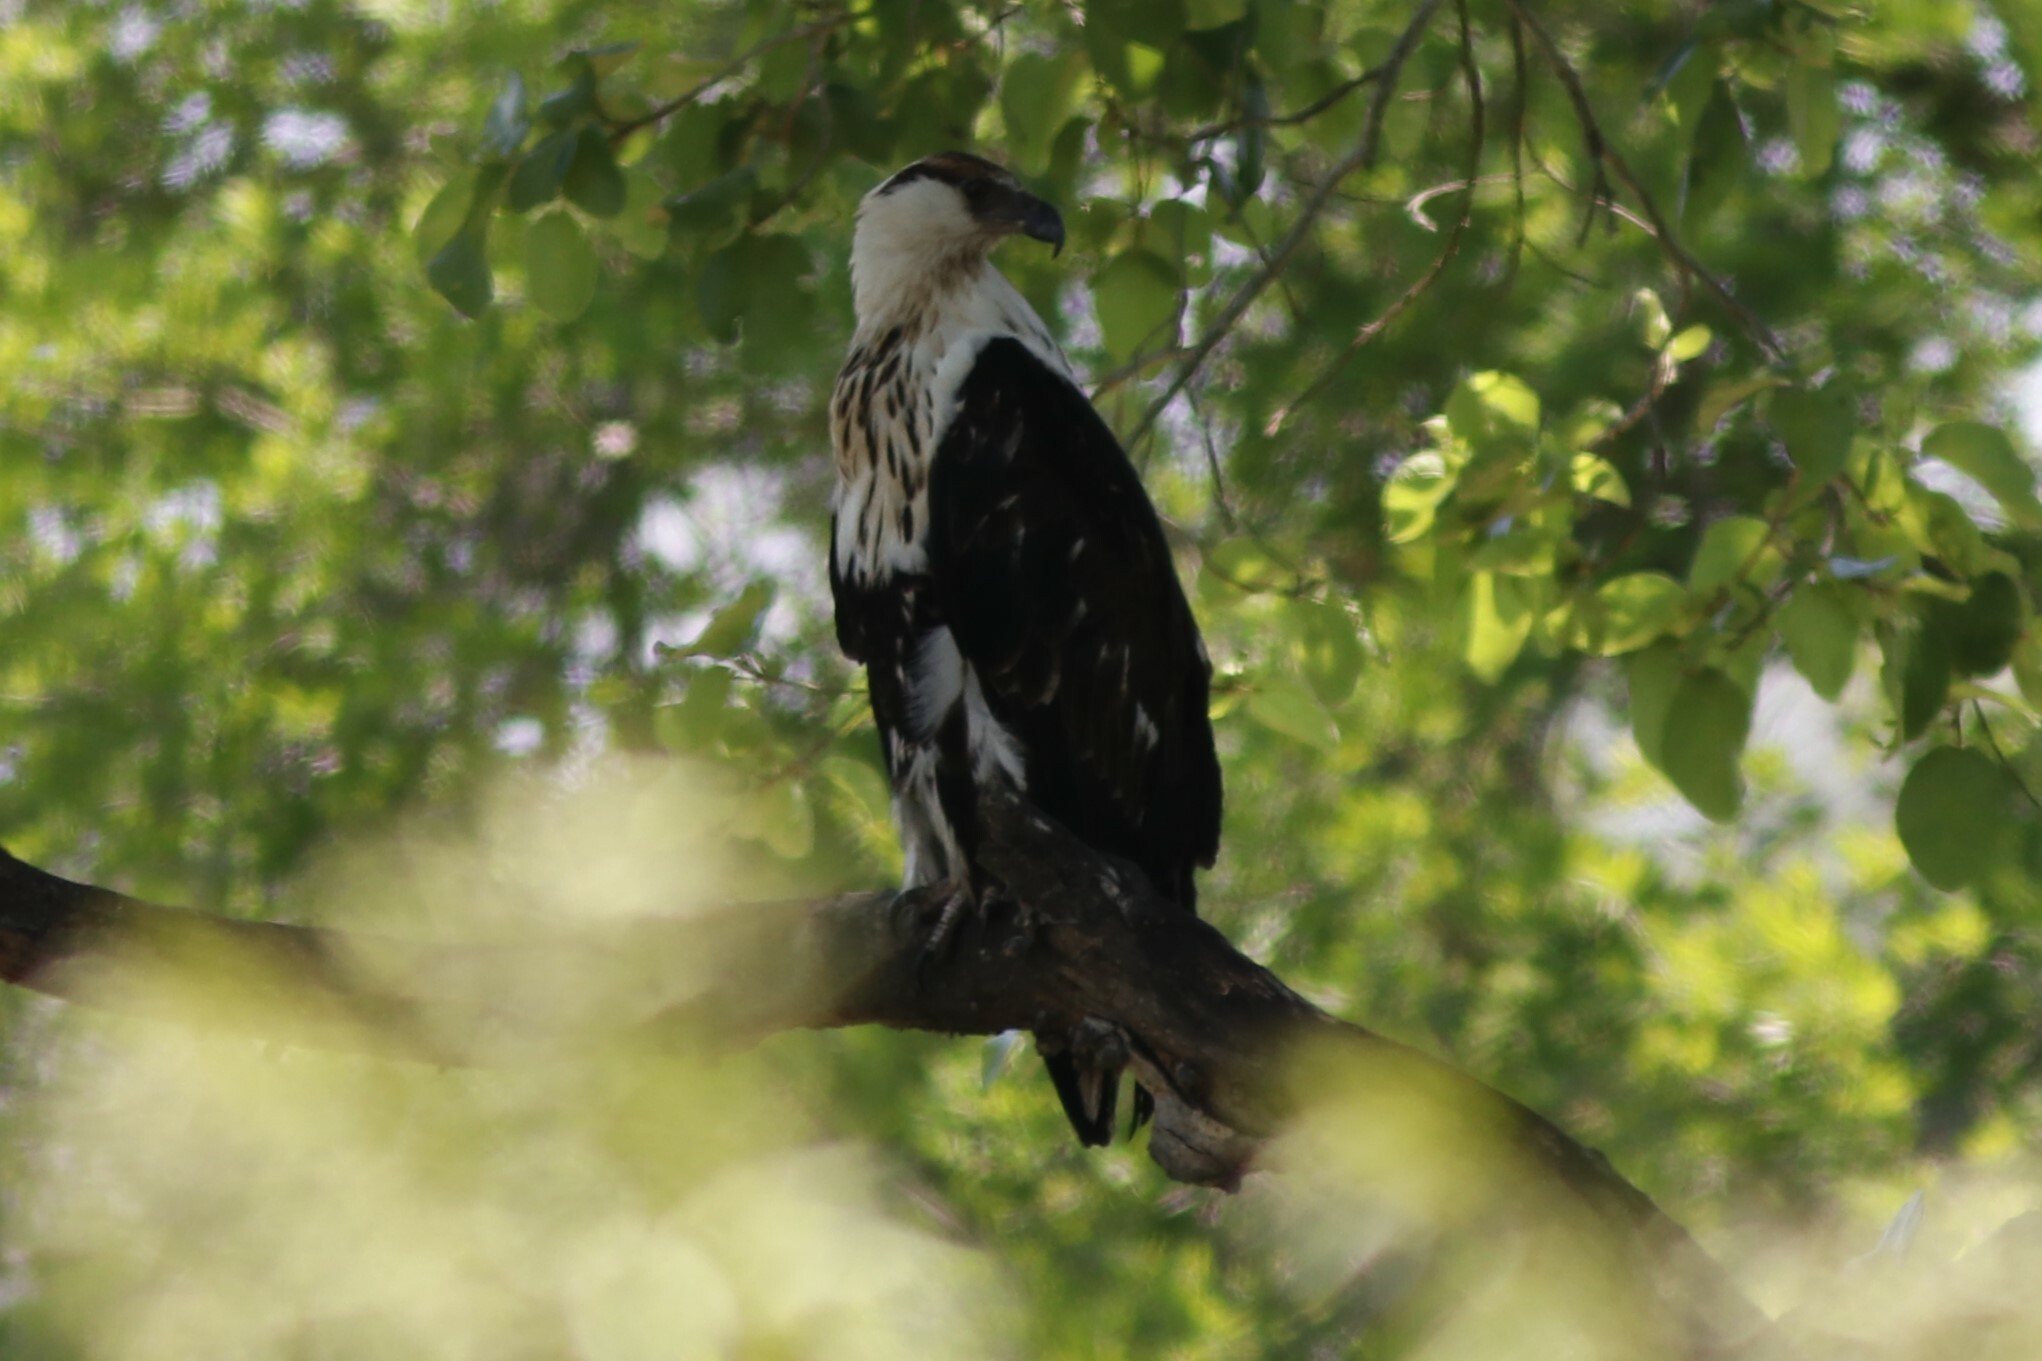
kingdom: Animalia
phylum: Chordata
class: Aves
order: Accipitriformes
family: Accipitridae
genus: Haliaeetus
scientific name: Haliaeetus vocifer
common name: African fish eagle
